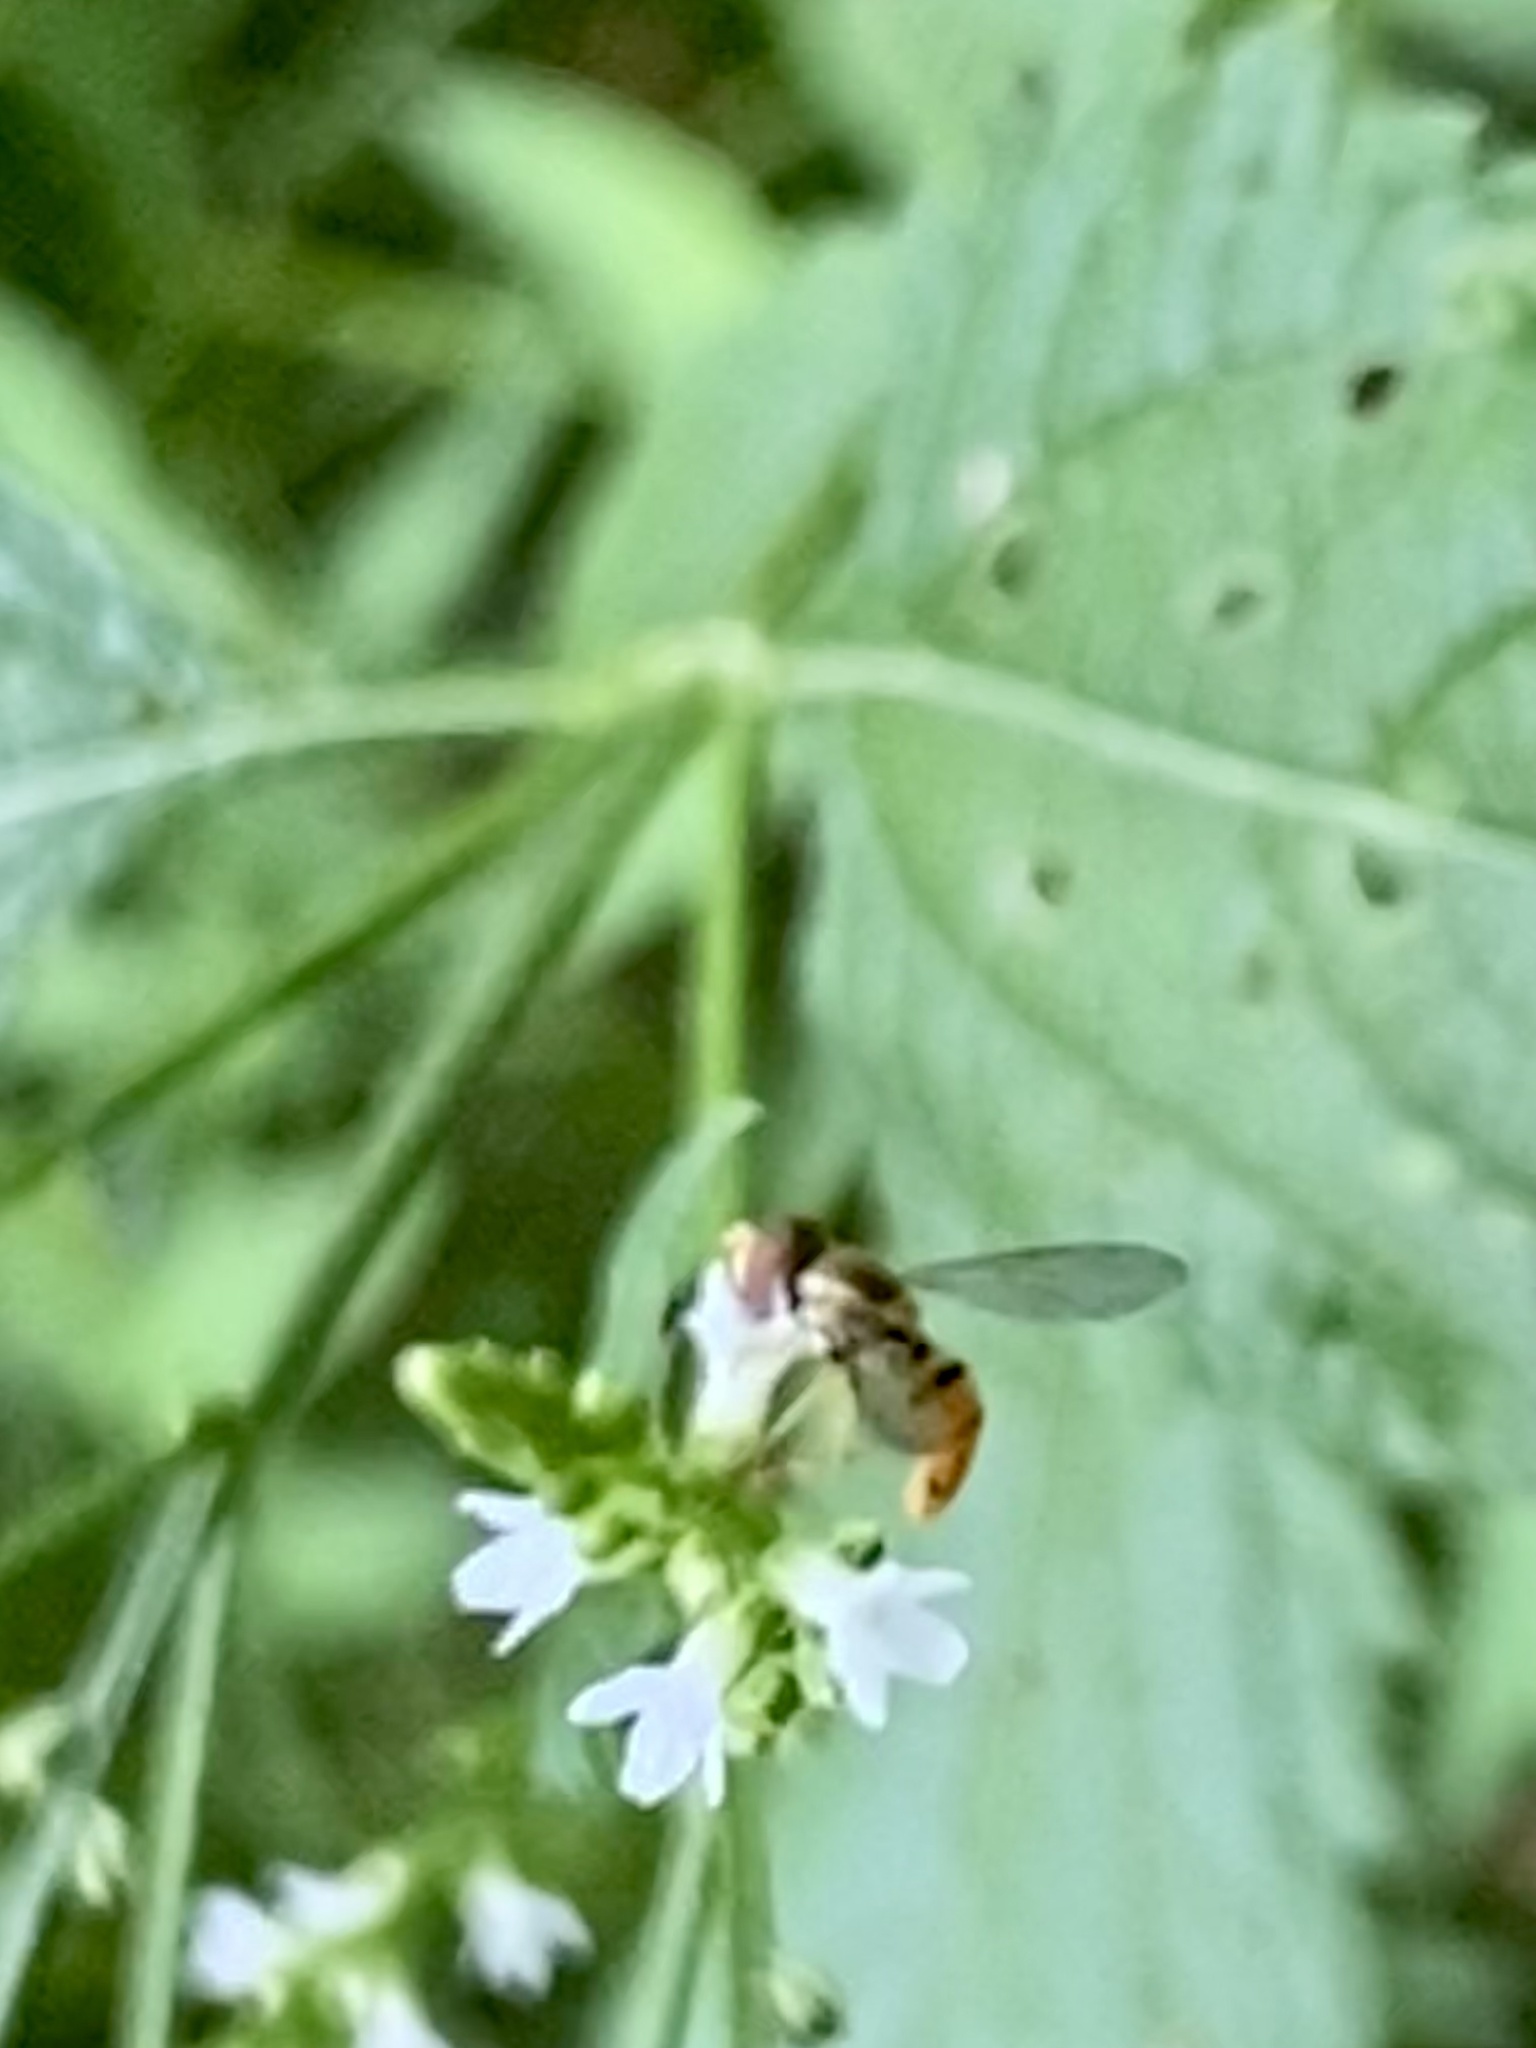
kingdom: Animalia
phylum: Arthropoda
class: Insecta
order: Diptera
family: Syrphidae
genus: Toxomerus
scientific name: Toxomerus marginatus
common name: Syrphid fly
